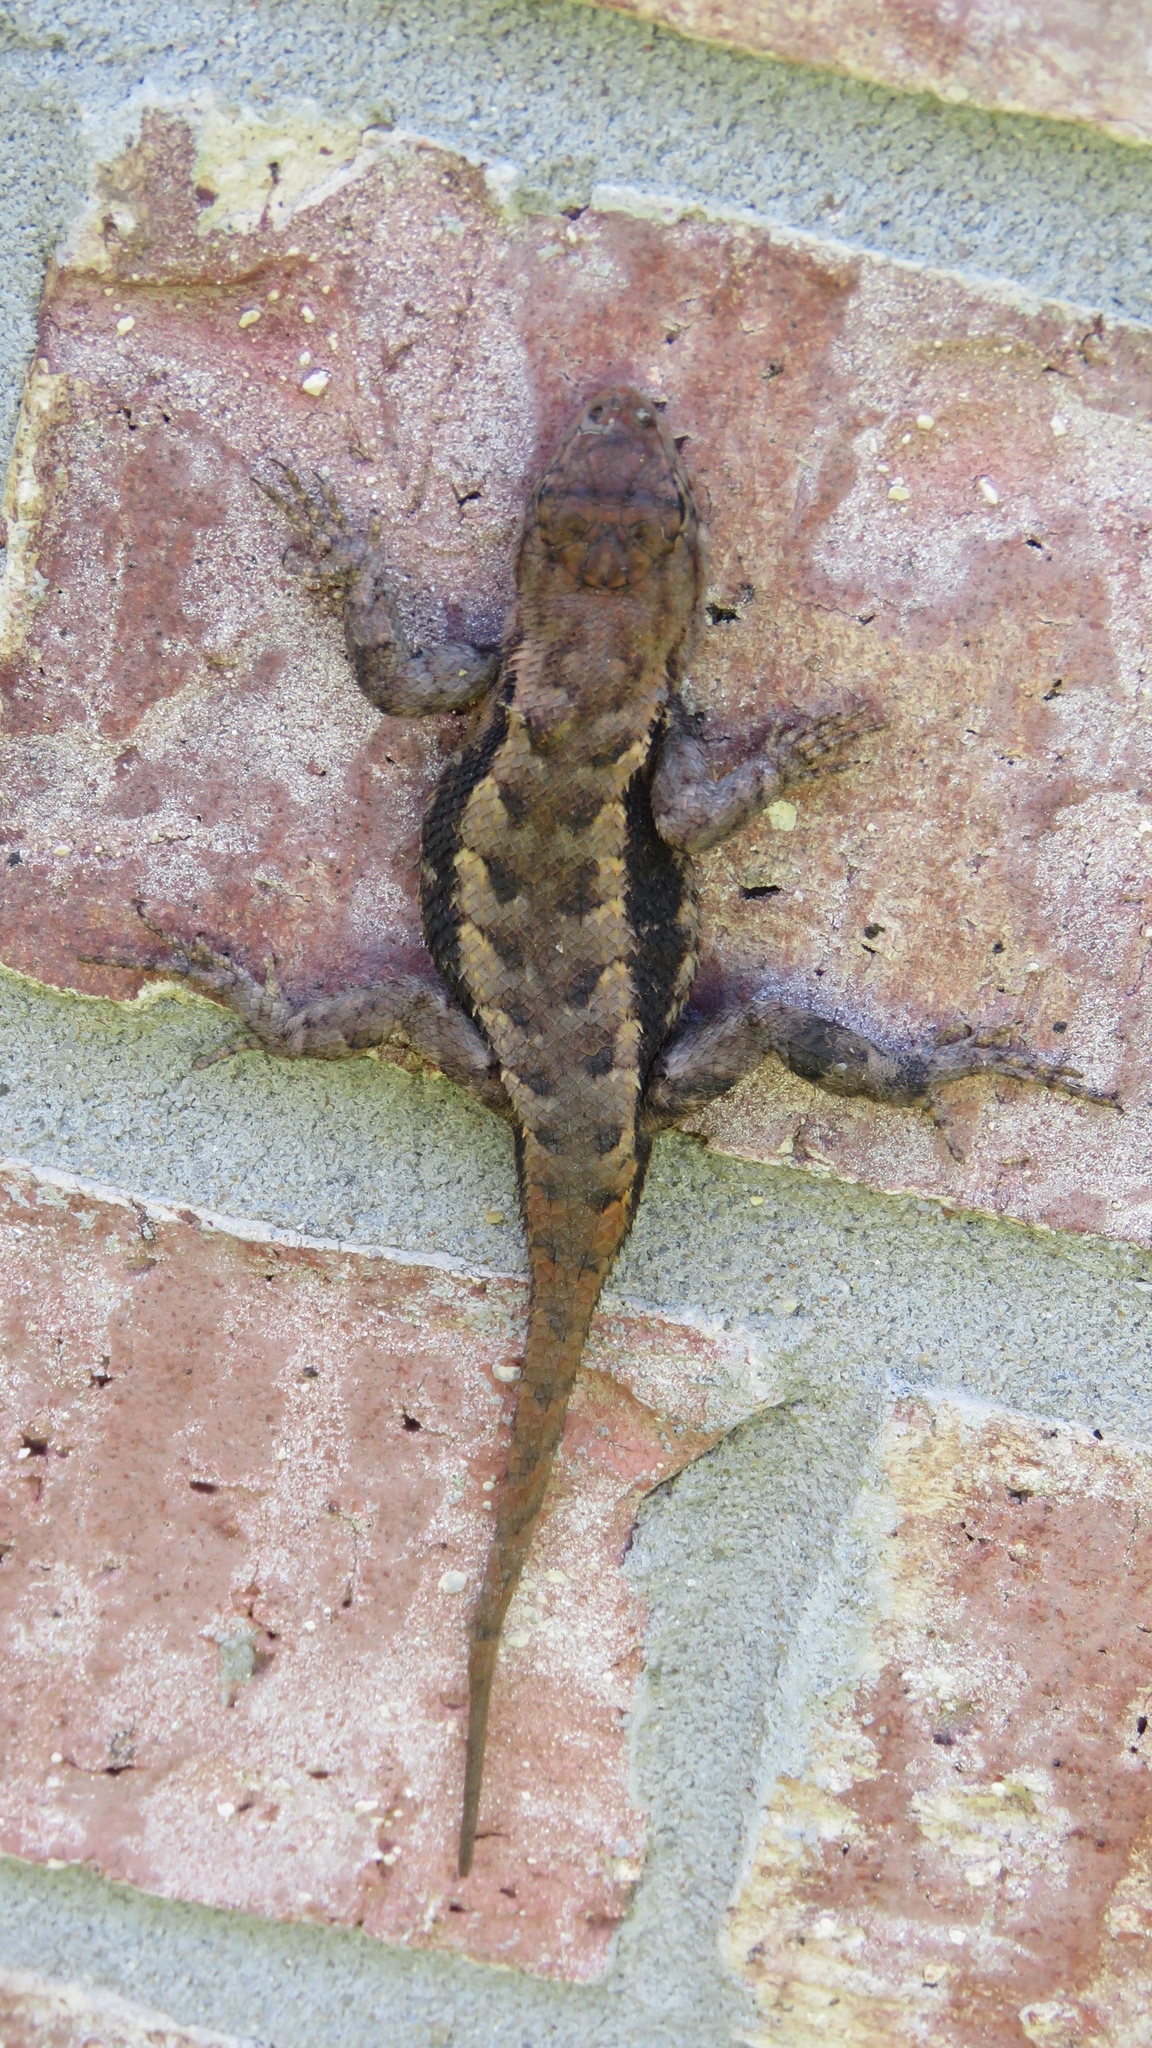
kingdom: Animalia
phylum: Chordata
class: Squamata
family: Phrynosomatidae
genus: Sceloporus
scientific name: Sceloporus consobrinus
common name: Southern prairie lizard
